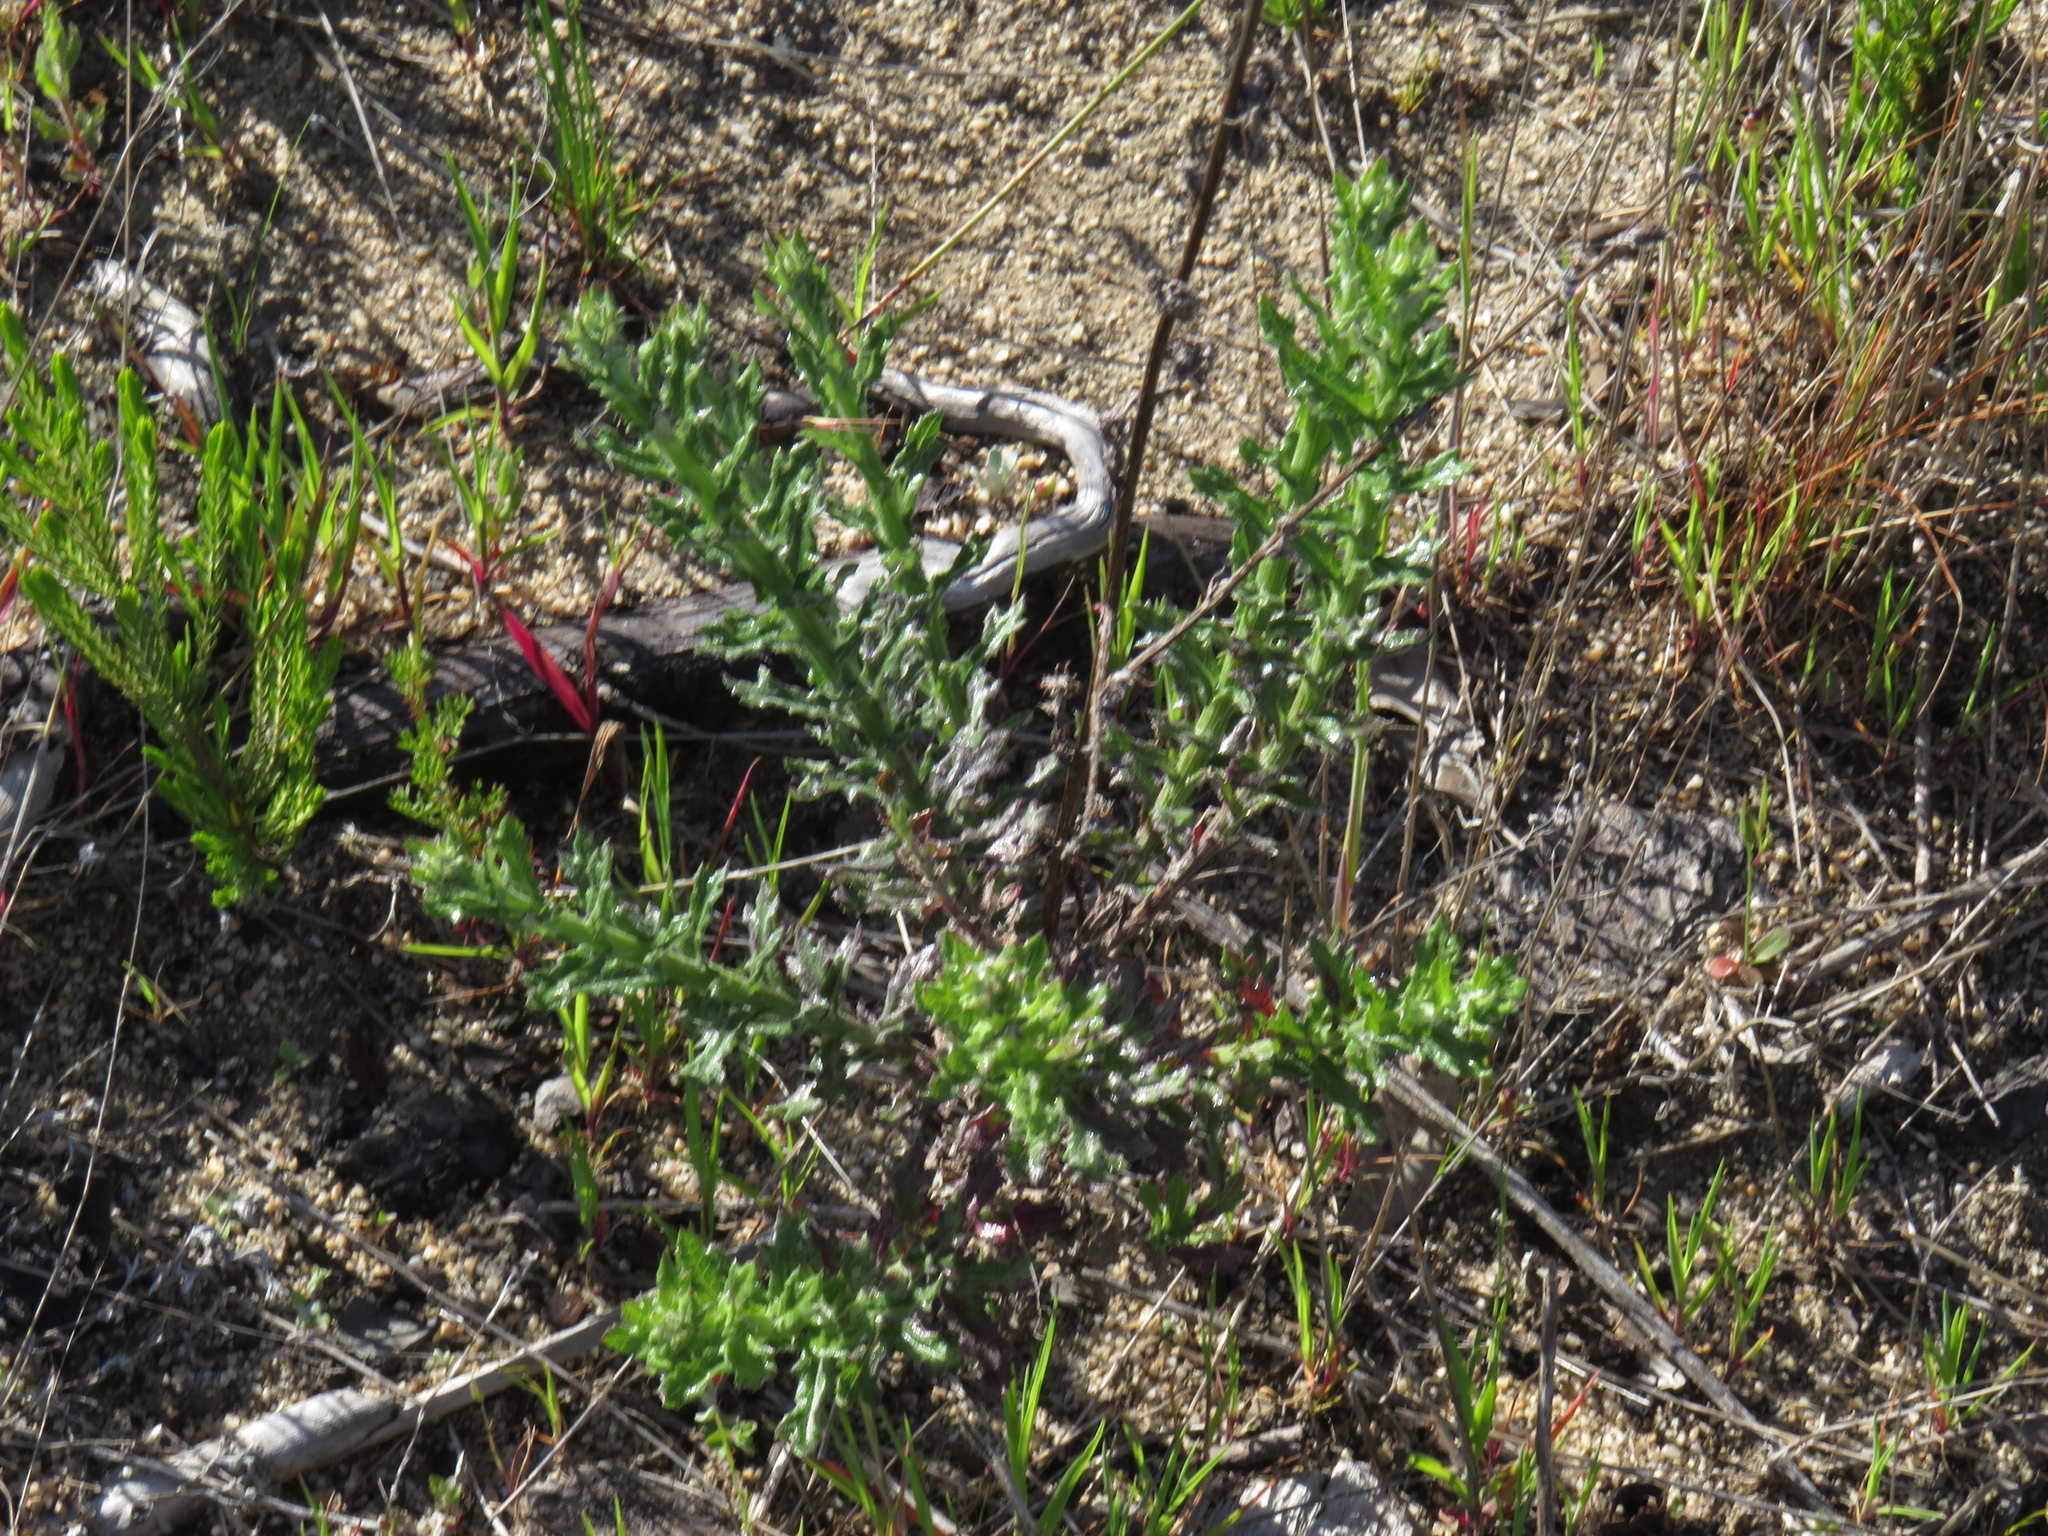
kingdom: Plantae
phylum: Tracheophyta
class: Magnoliopsida
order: Asterales
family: Asteraceae
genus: Senecio
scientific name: Senecio pubigerus
